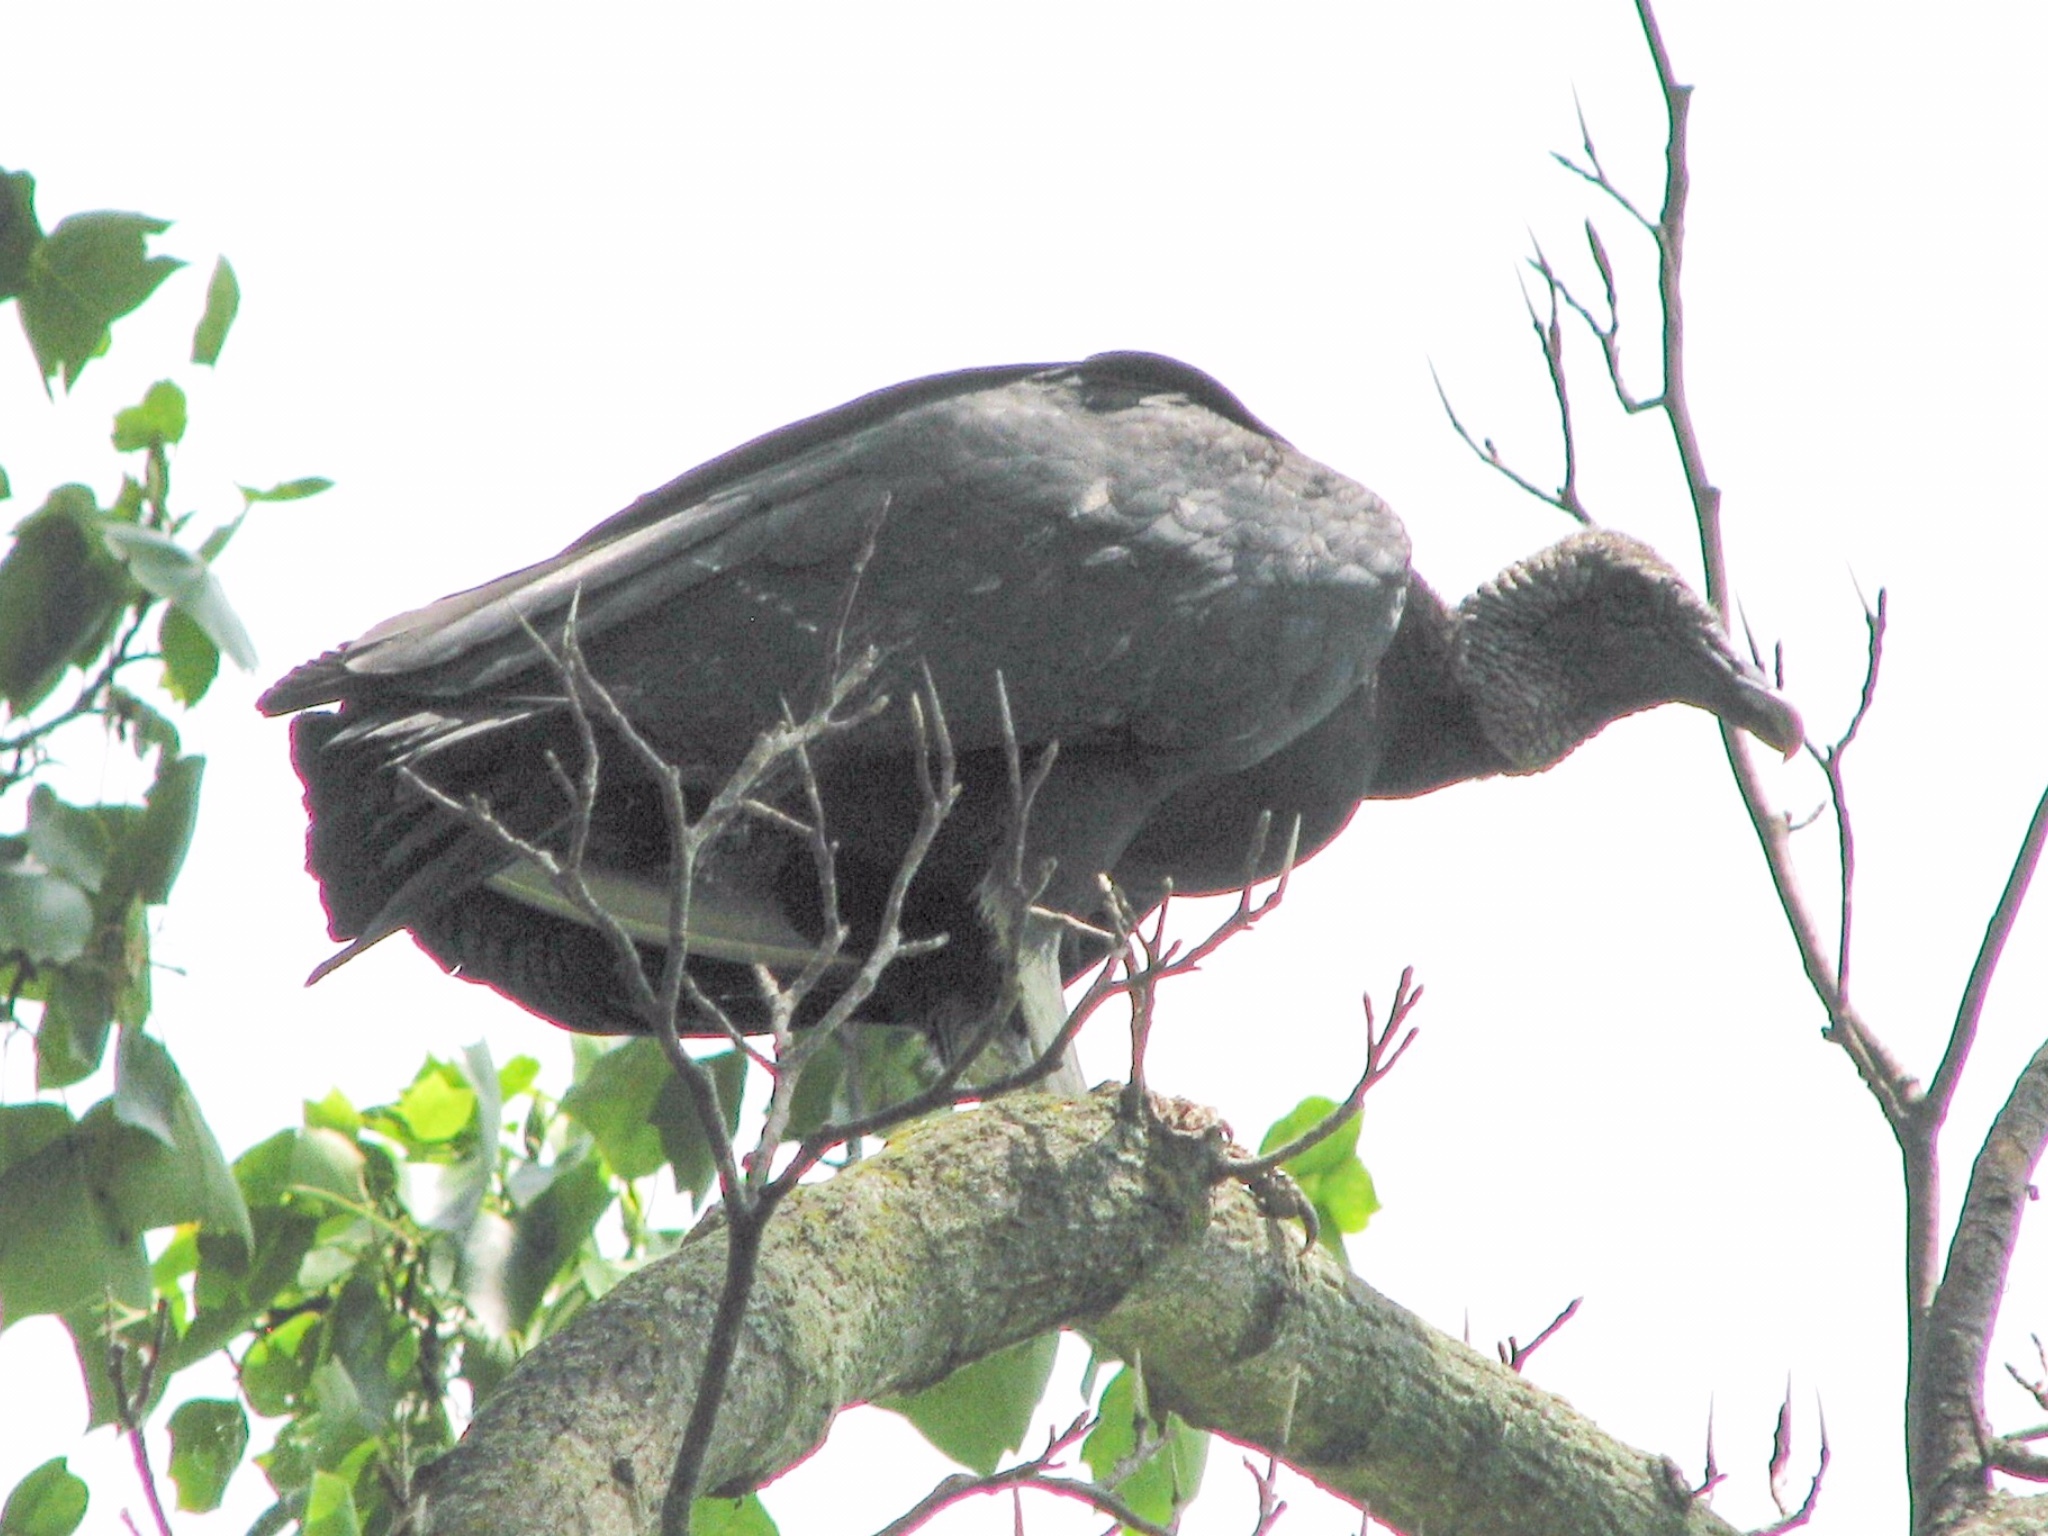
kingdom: Animalia
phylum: Chordata
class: Aves
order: Accipitriformes
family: Cathartidae
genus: Coragyps
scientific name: Coragyps atratus
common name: Black vulture
